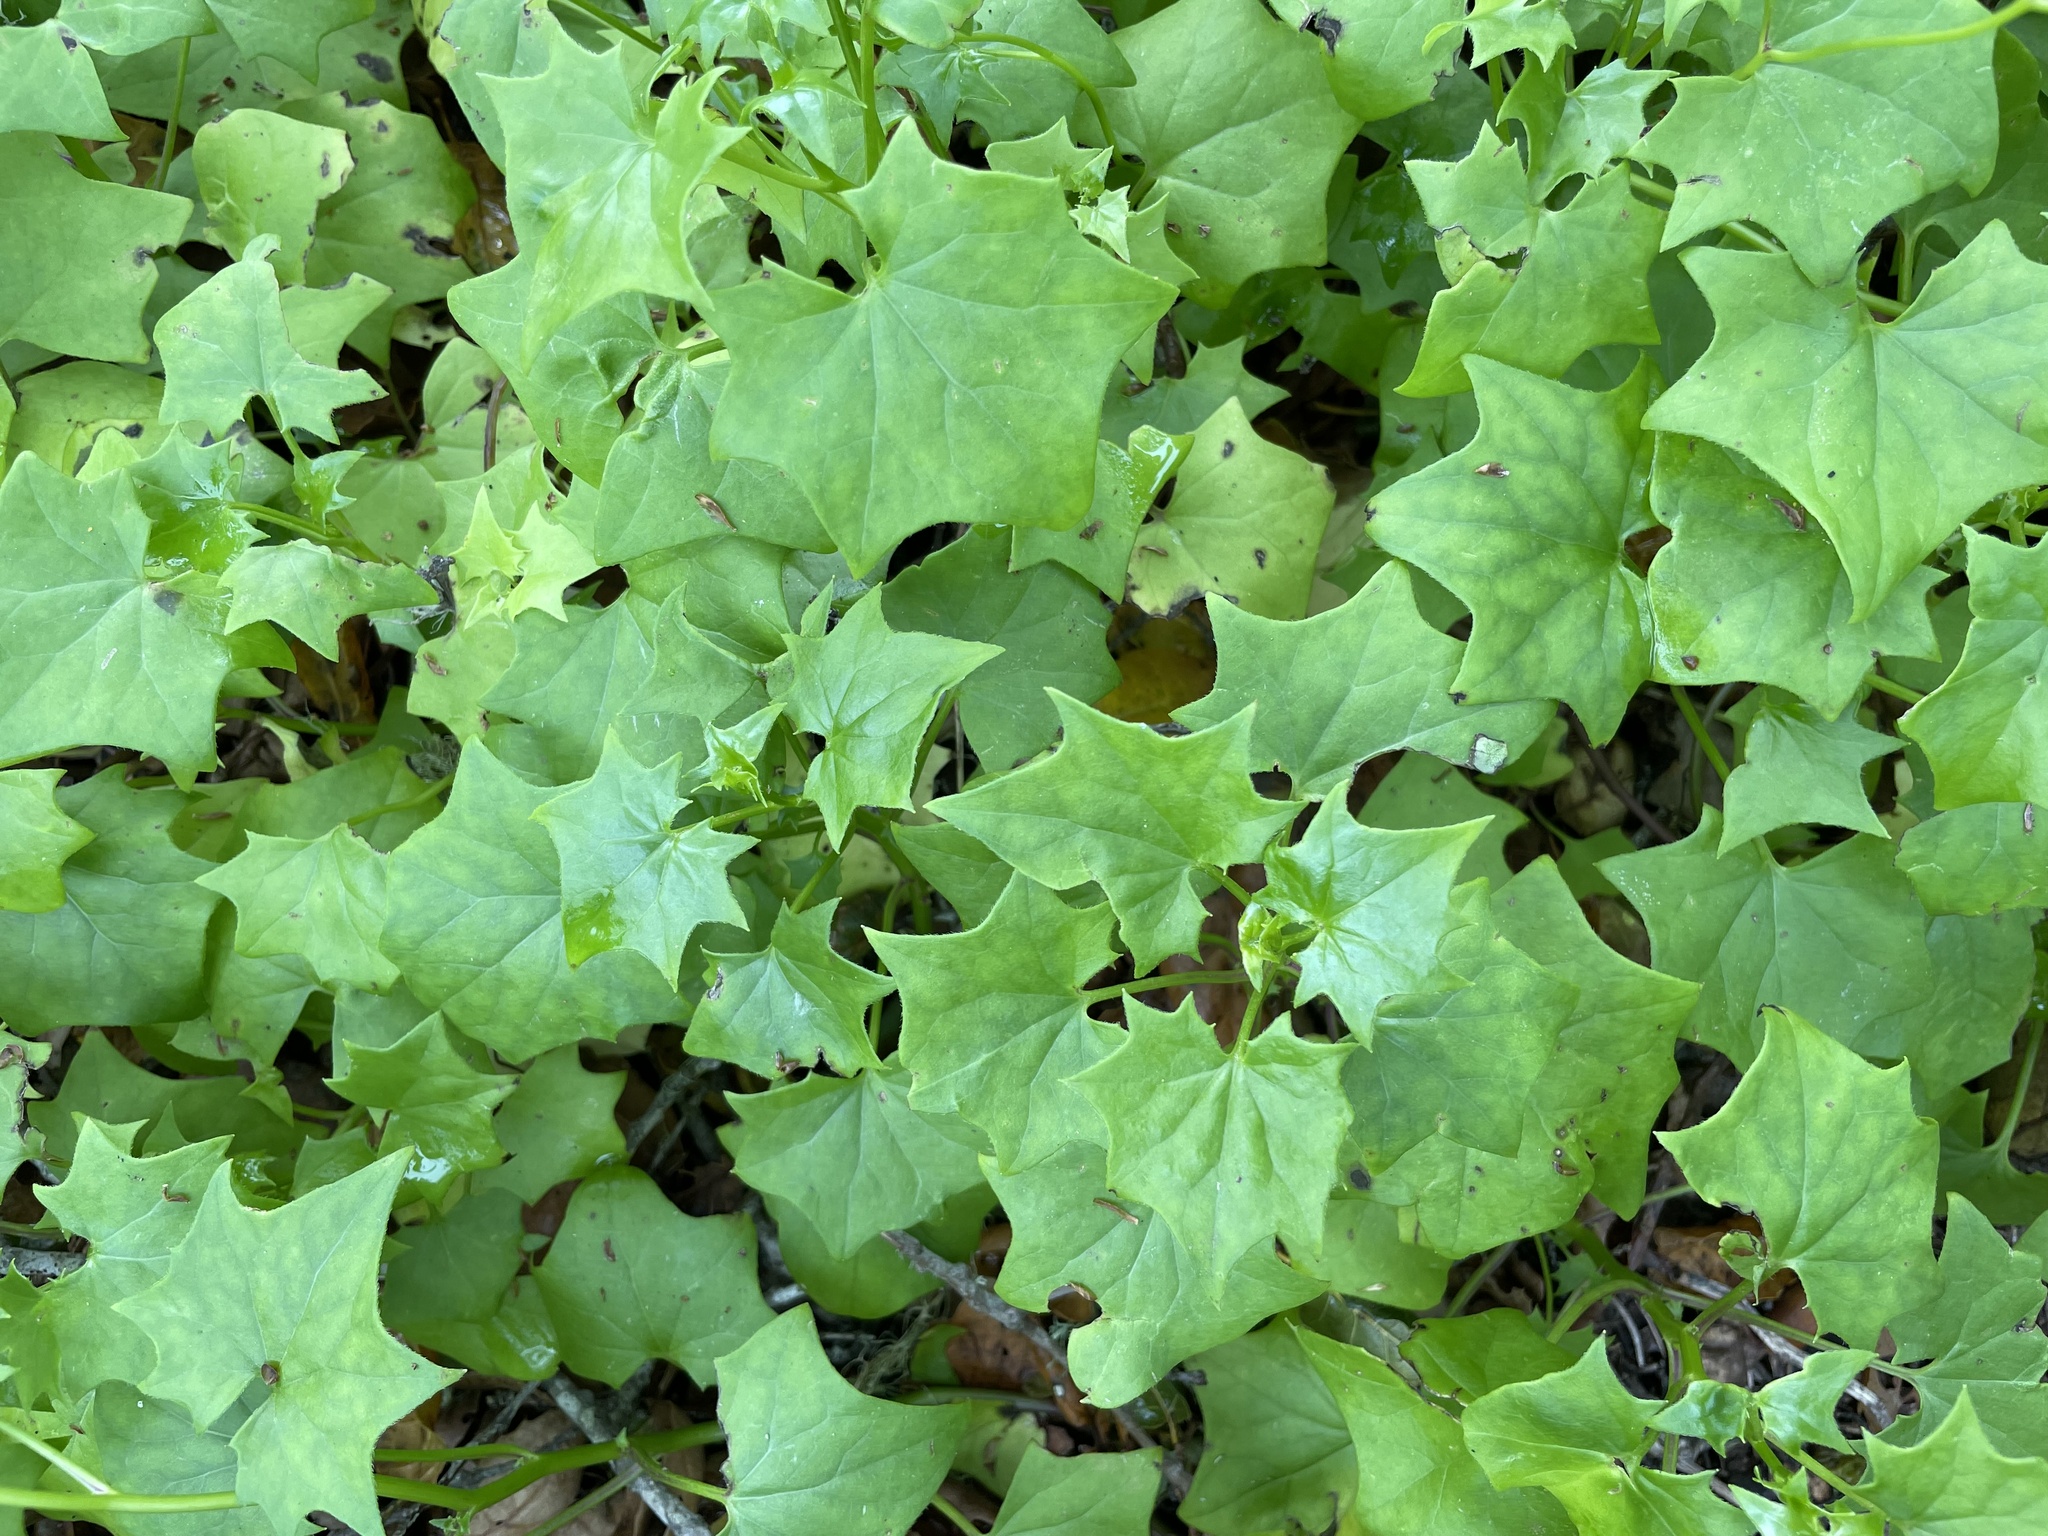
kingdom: Plantae
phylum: Tracheophyta
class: Magnoliopsida
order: Asterales
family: Asteraceae
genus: Delairea
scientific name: Delairea odorata
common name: Cape-ivy
